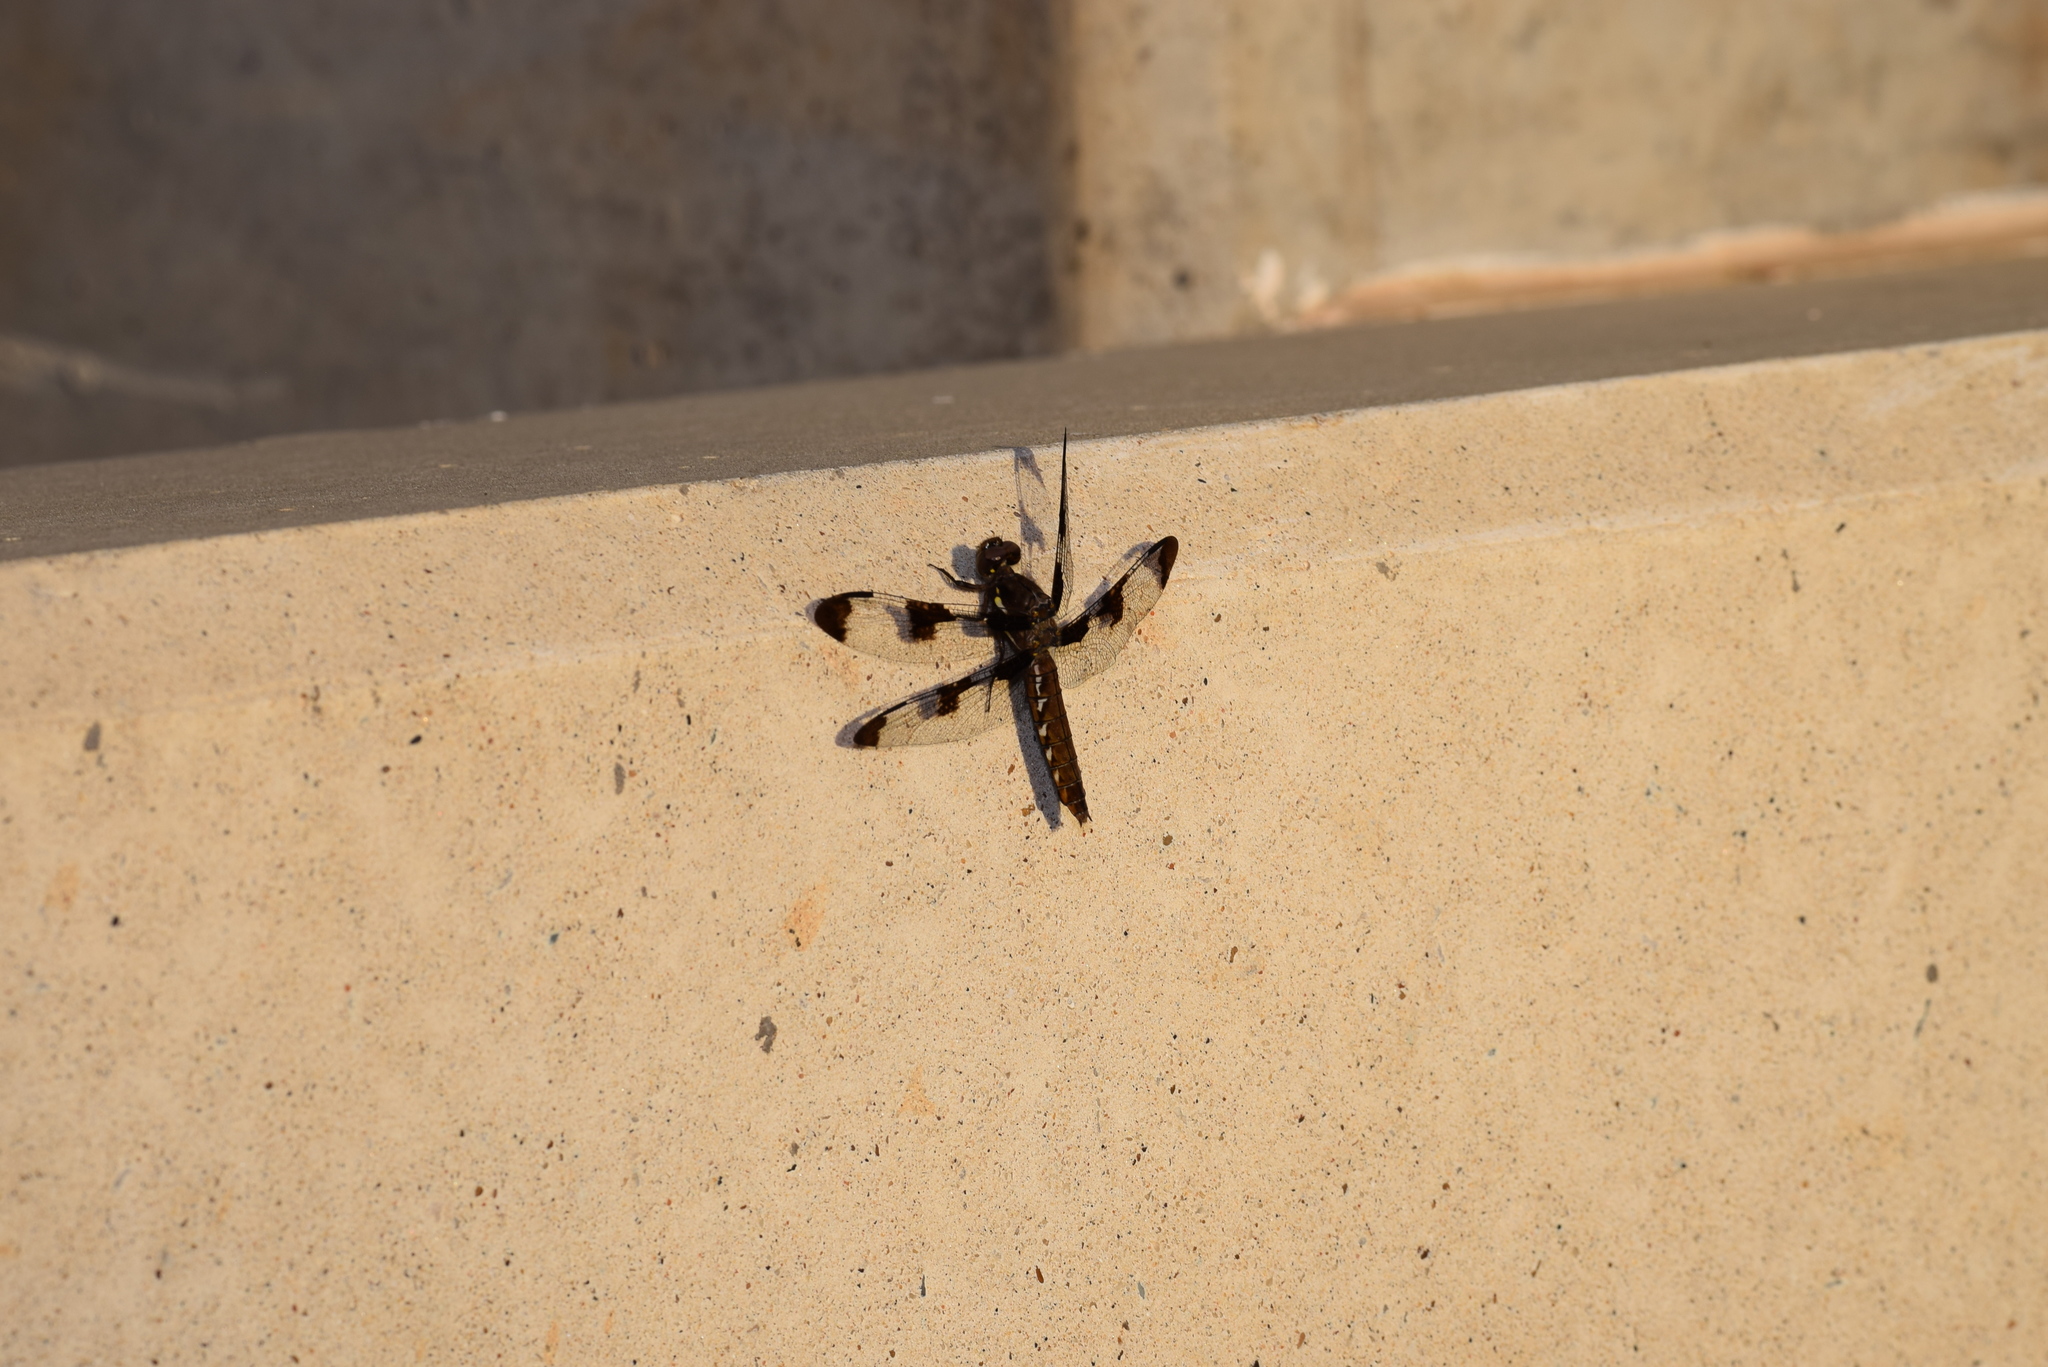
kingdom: Animalia
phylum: Arthropoda
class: Insecta
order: Odonata
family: Libellulidae
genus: Plathemis
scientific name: Plathemis lydia
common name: Common whitetail
